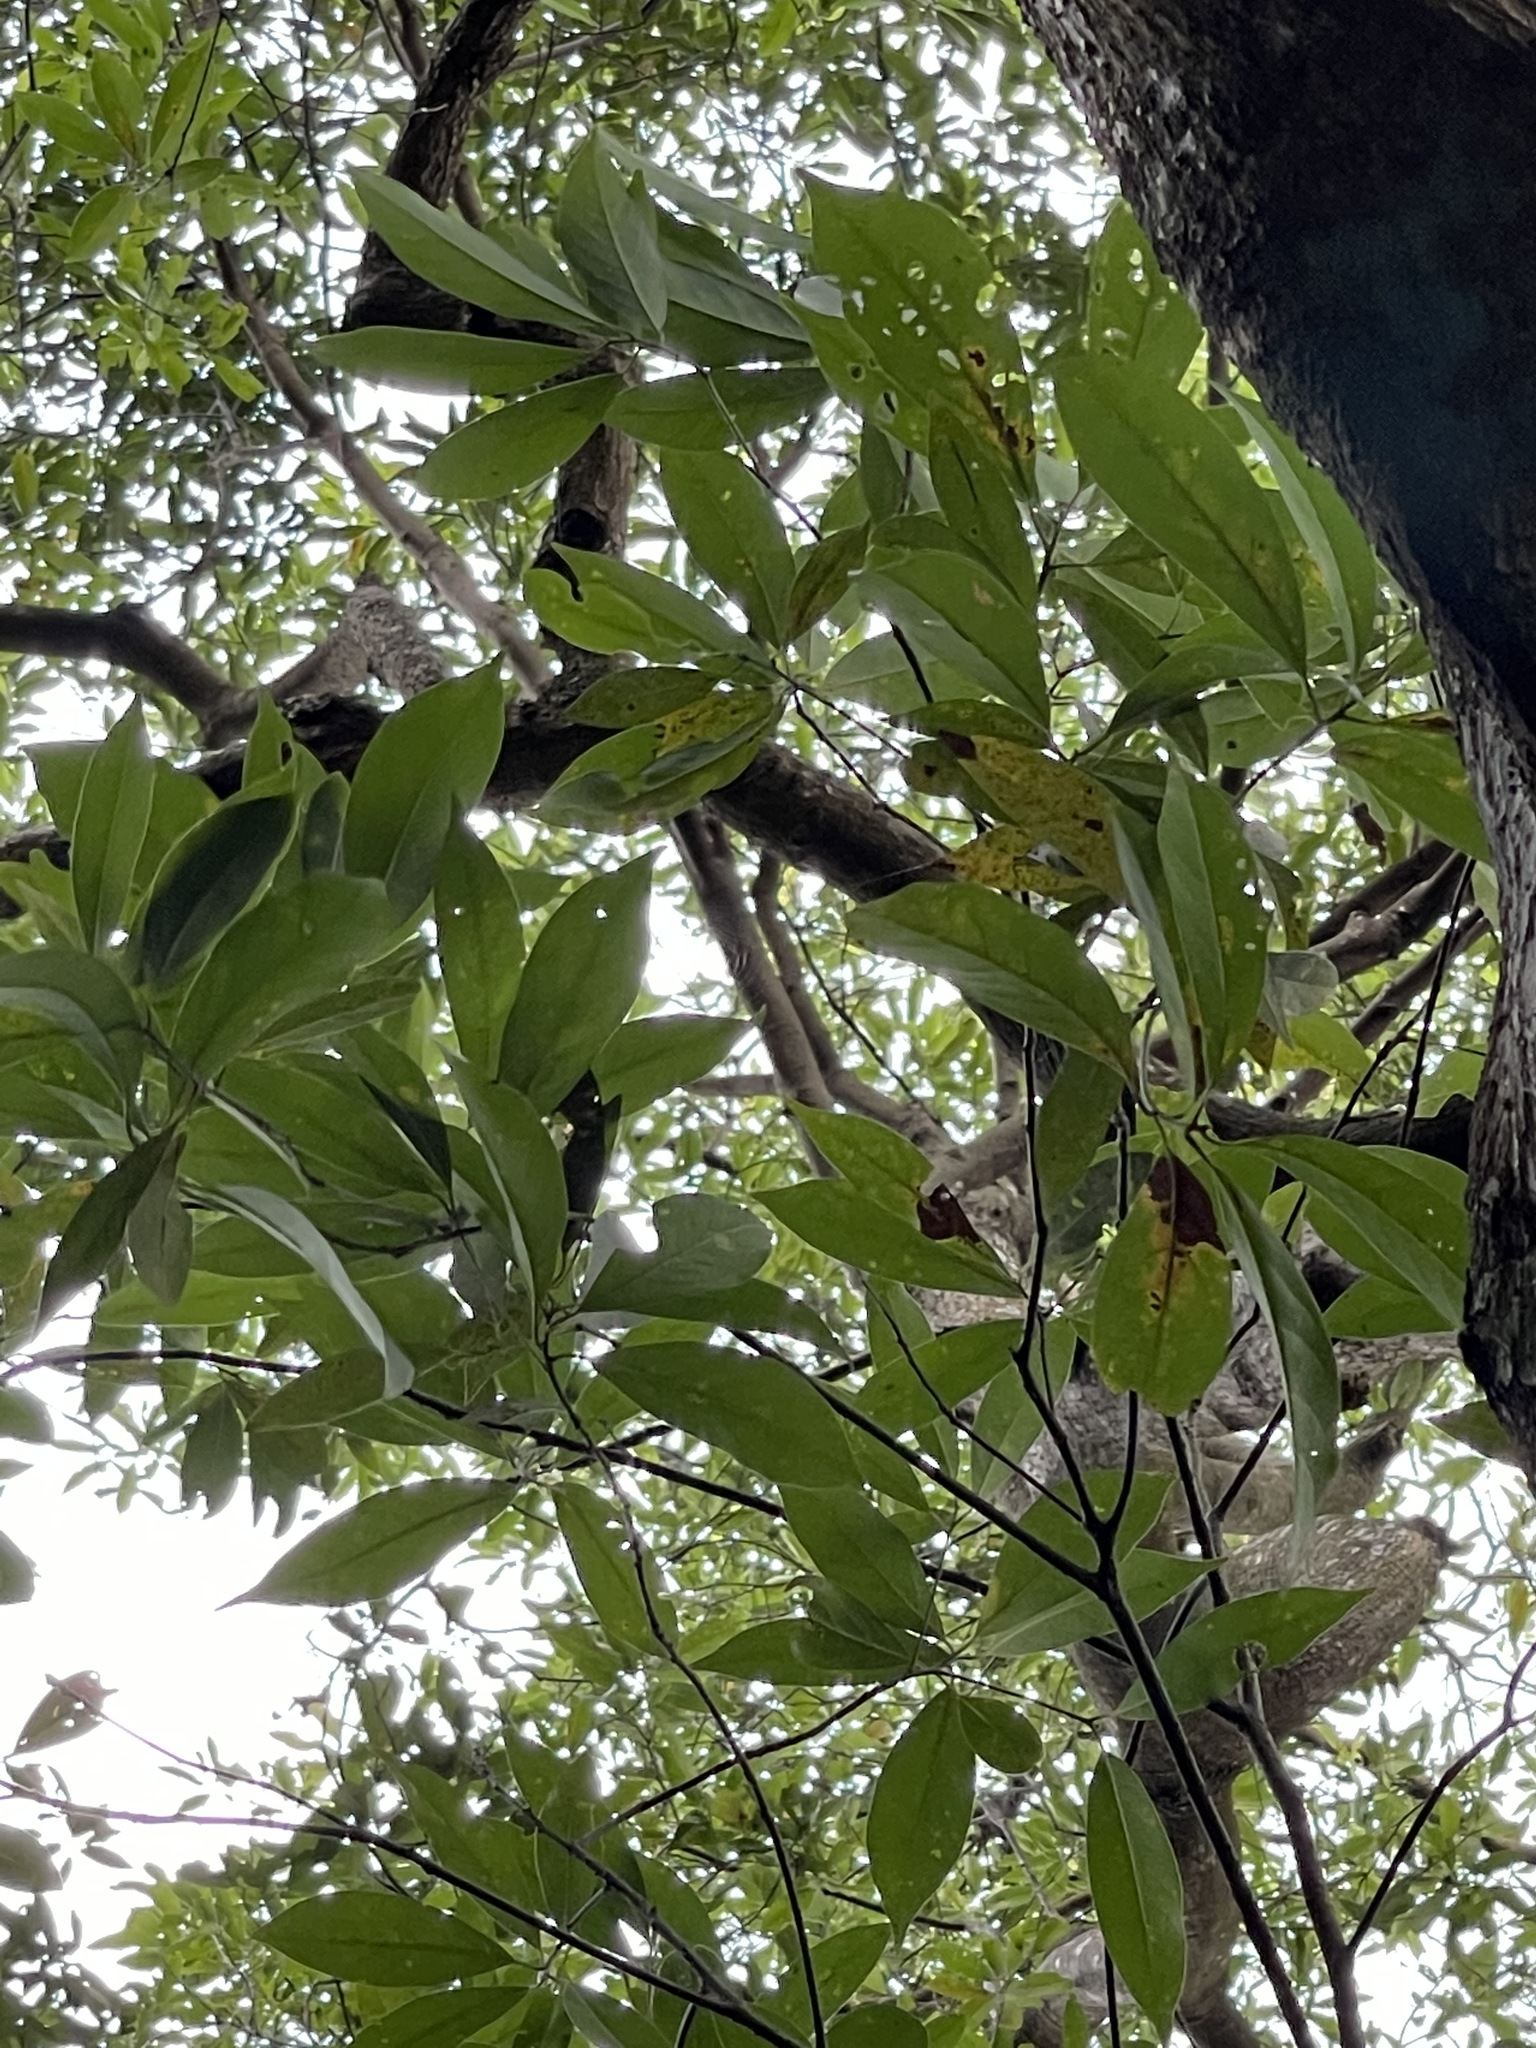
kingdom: Plantae
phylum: Tracheophyta
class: Magnoliopsida
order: Laurales
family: Lauraceae
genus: Machilus
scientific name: Machilus thunbergii
